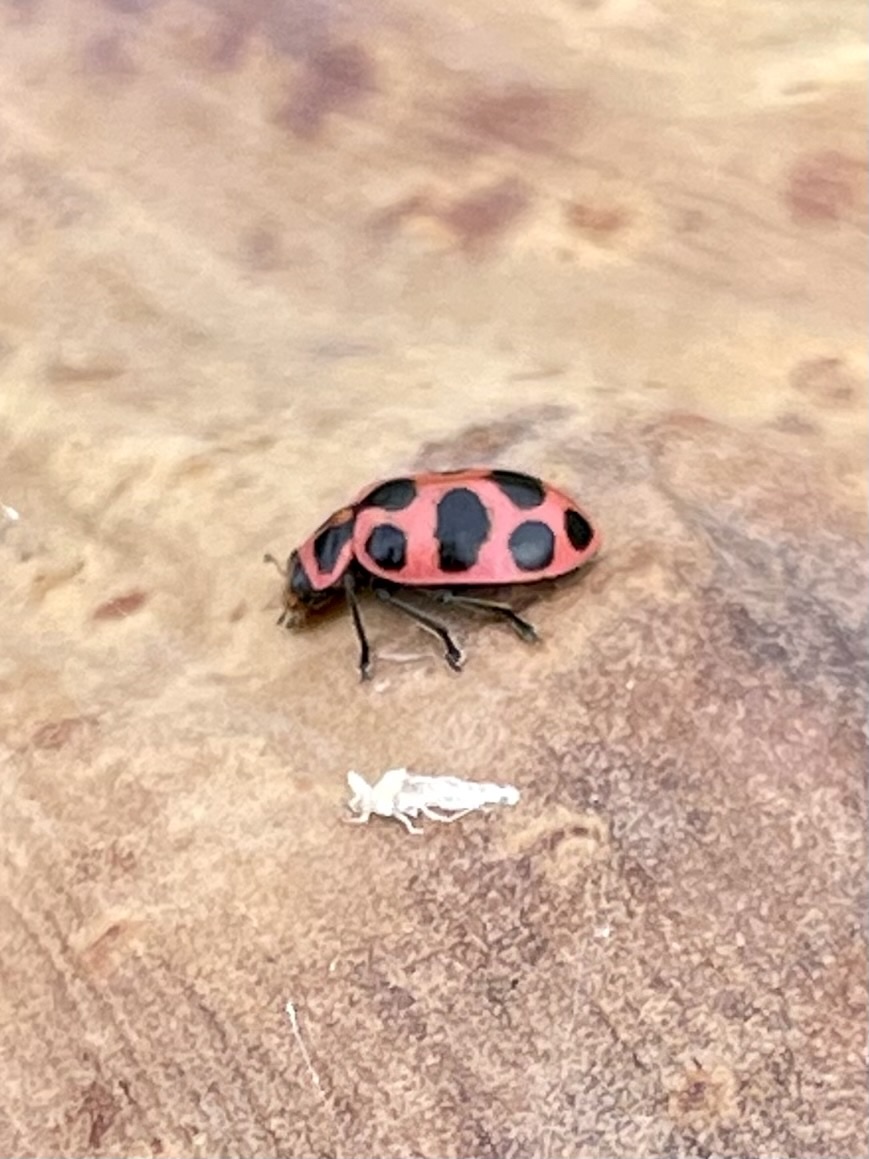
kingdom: Animalia
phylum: Arthropoda
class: Insecta
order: Coleoptera
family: Coccinellidae
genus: Coleomegilla
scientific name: Coleomegilla maculata
